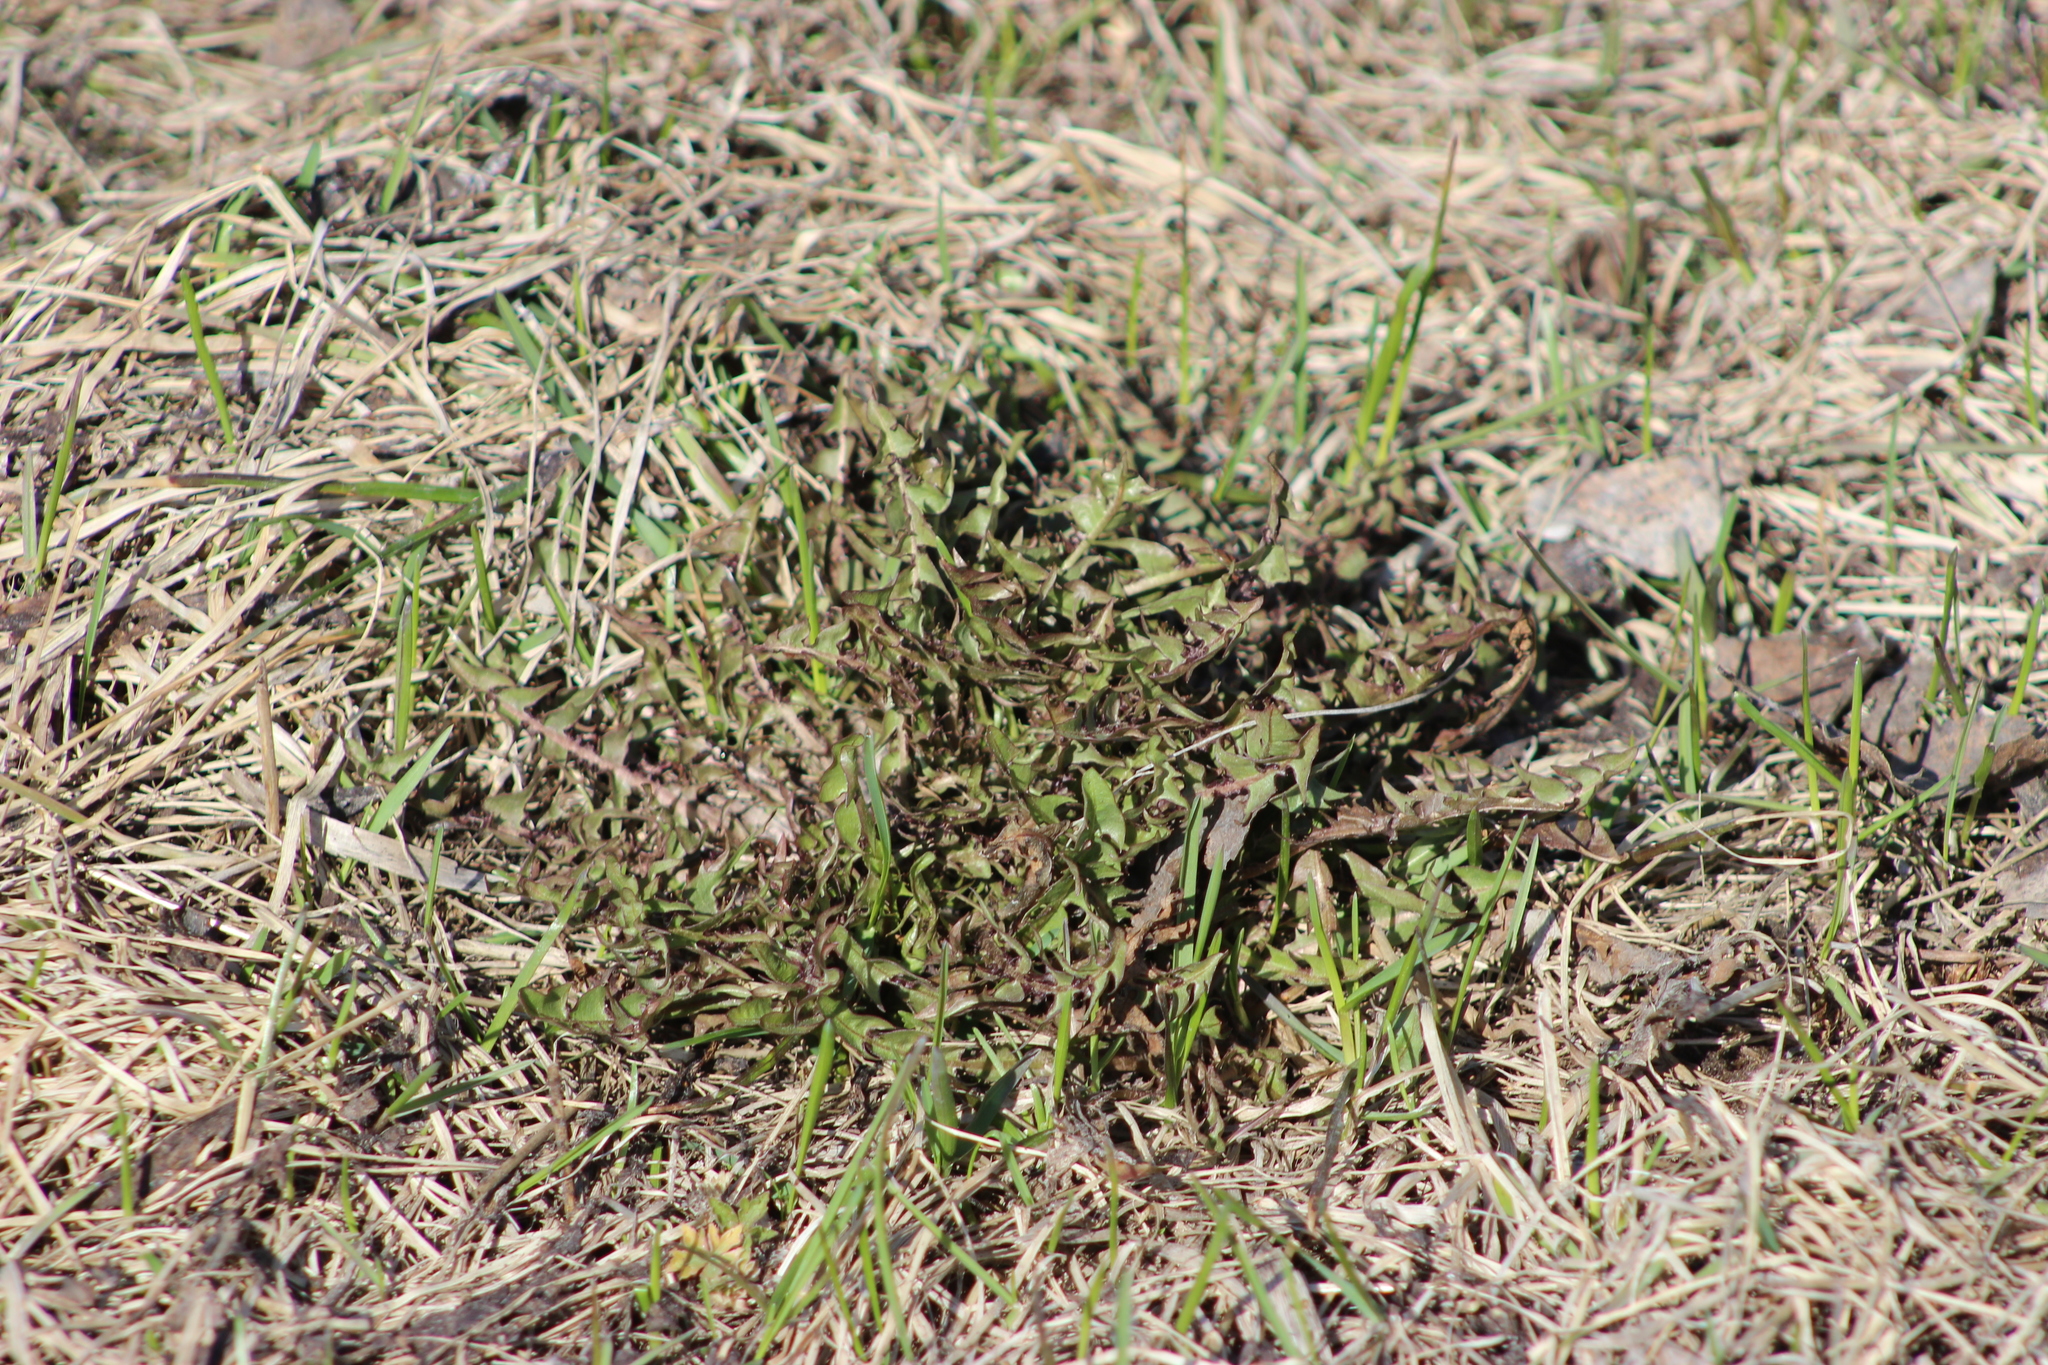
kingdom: Plantae
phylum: Tracheophyta
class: Magnoliopsida
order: Asterales
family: Asteraceae
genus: Taraxacum
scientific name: Taraxacum officinale
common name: Common dandelion
